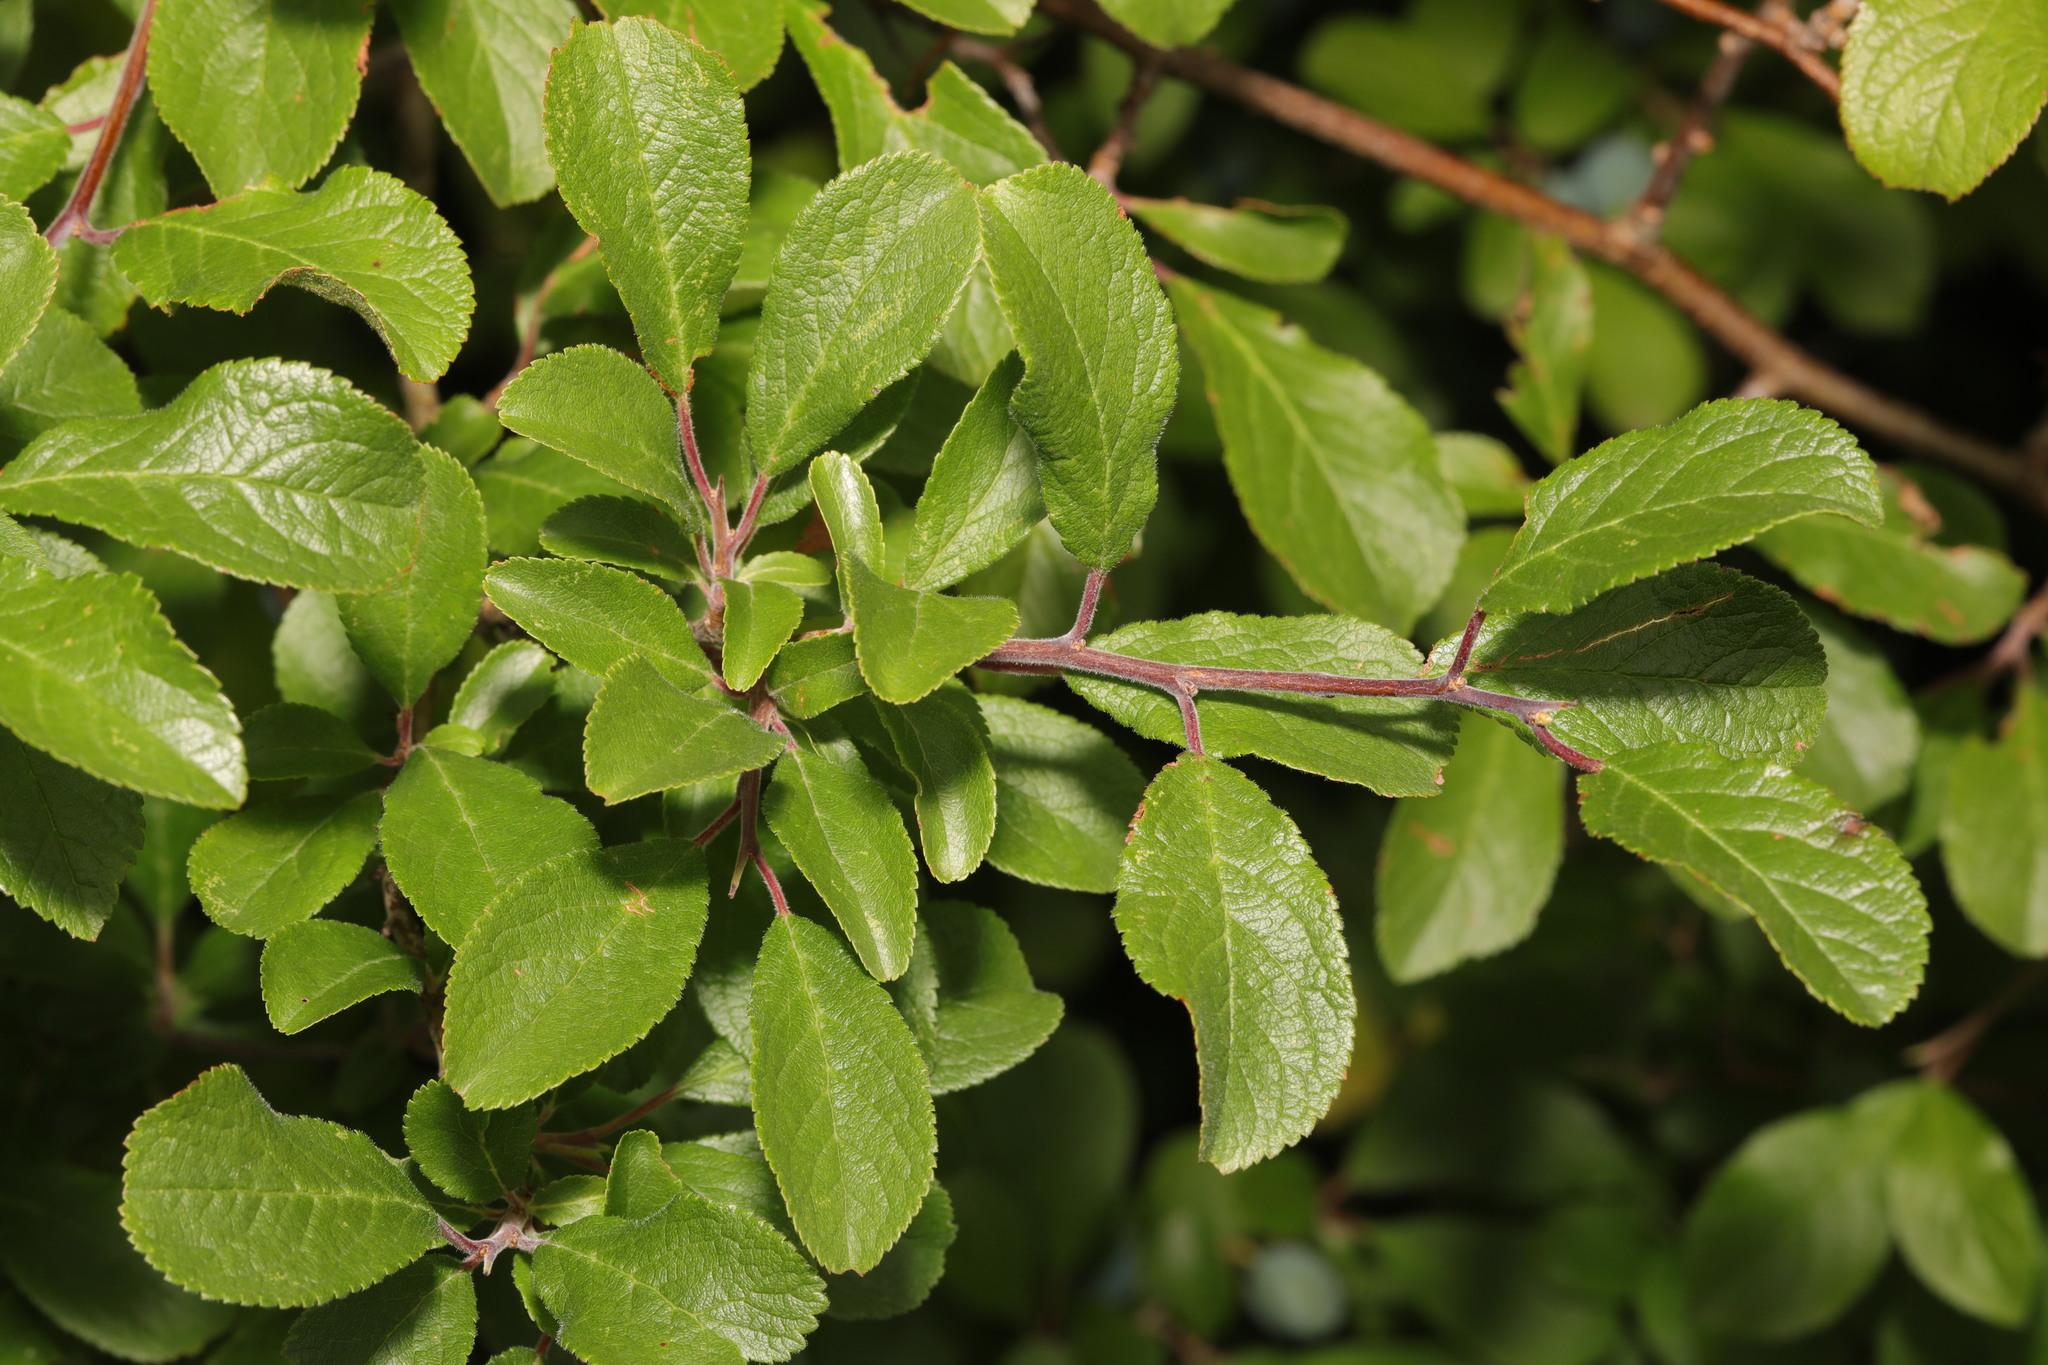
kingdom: Plantae
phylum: Tracheophyta
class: Magnoliopsida
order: Rosales
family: Rosaceae
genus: Prunus
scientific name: Prunus spinosa
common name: Blackthorn
